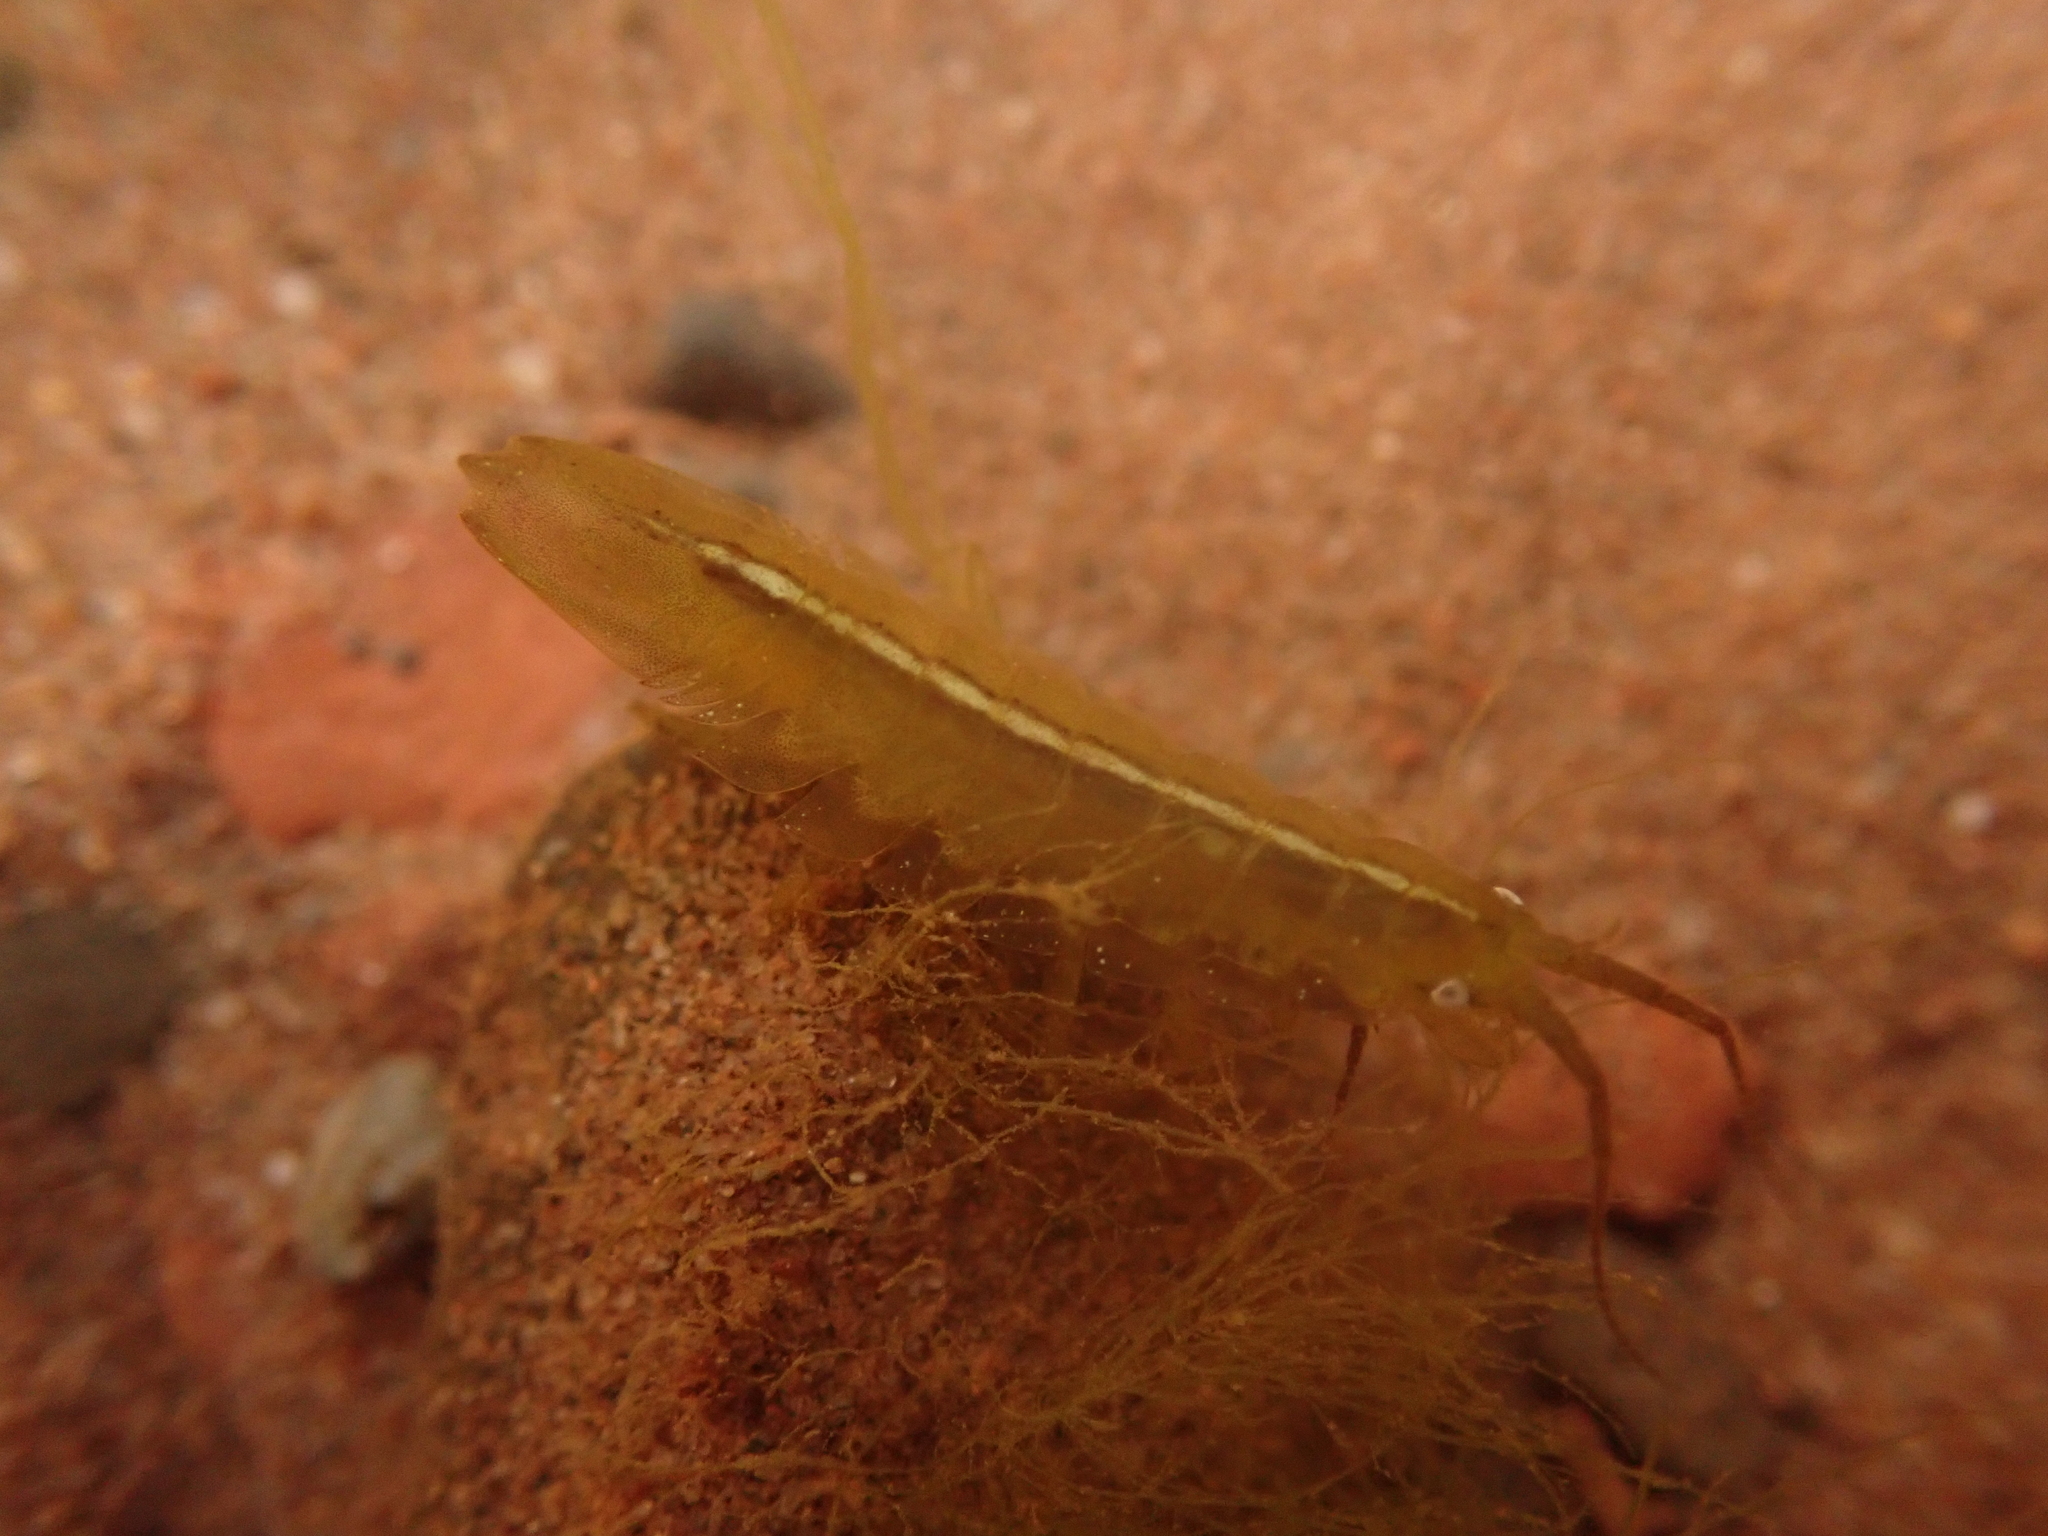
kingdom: Animalia
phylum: Arthropoda
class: Malacostraca
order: Isopoda
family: Idoteidae
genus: Idotea
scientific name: Idotea balthica
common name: Baltic isopod
